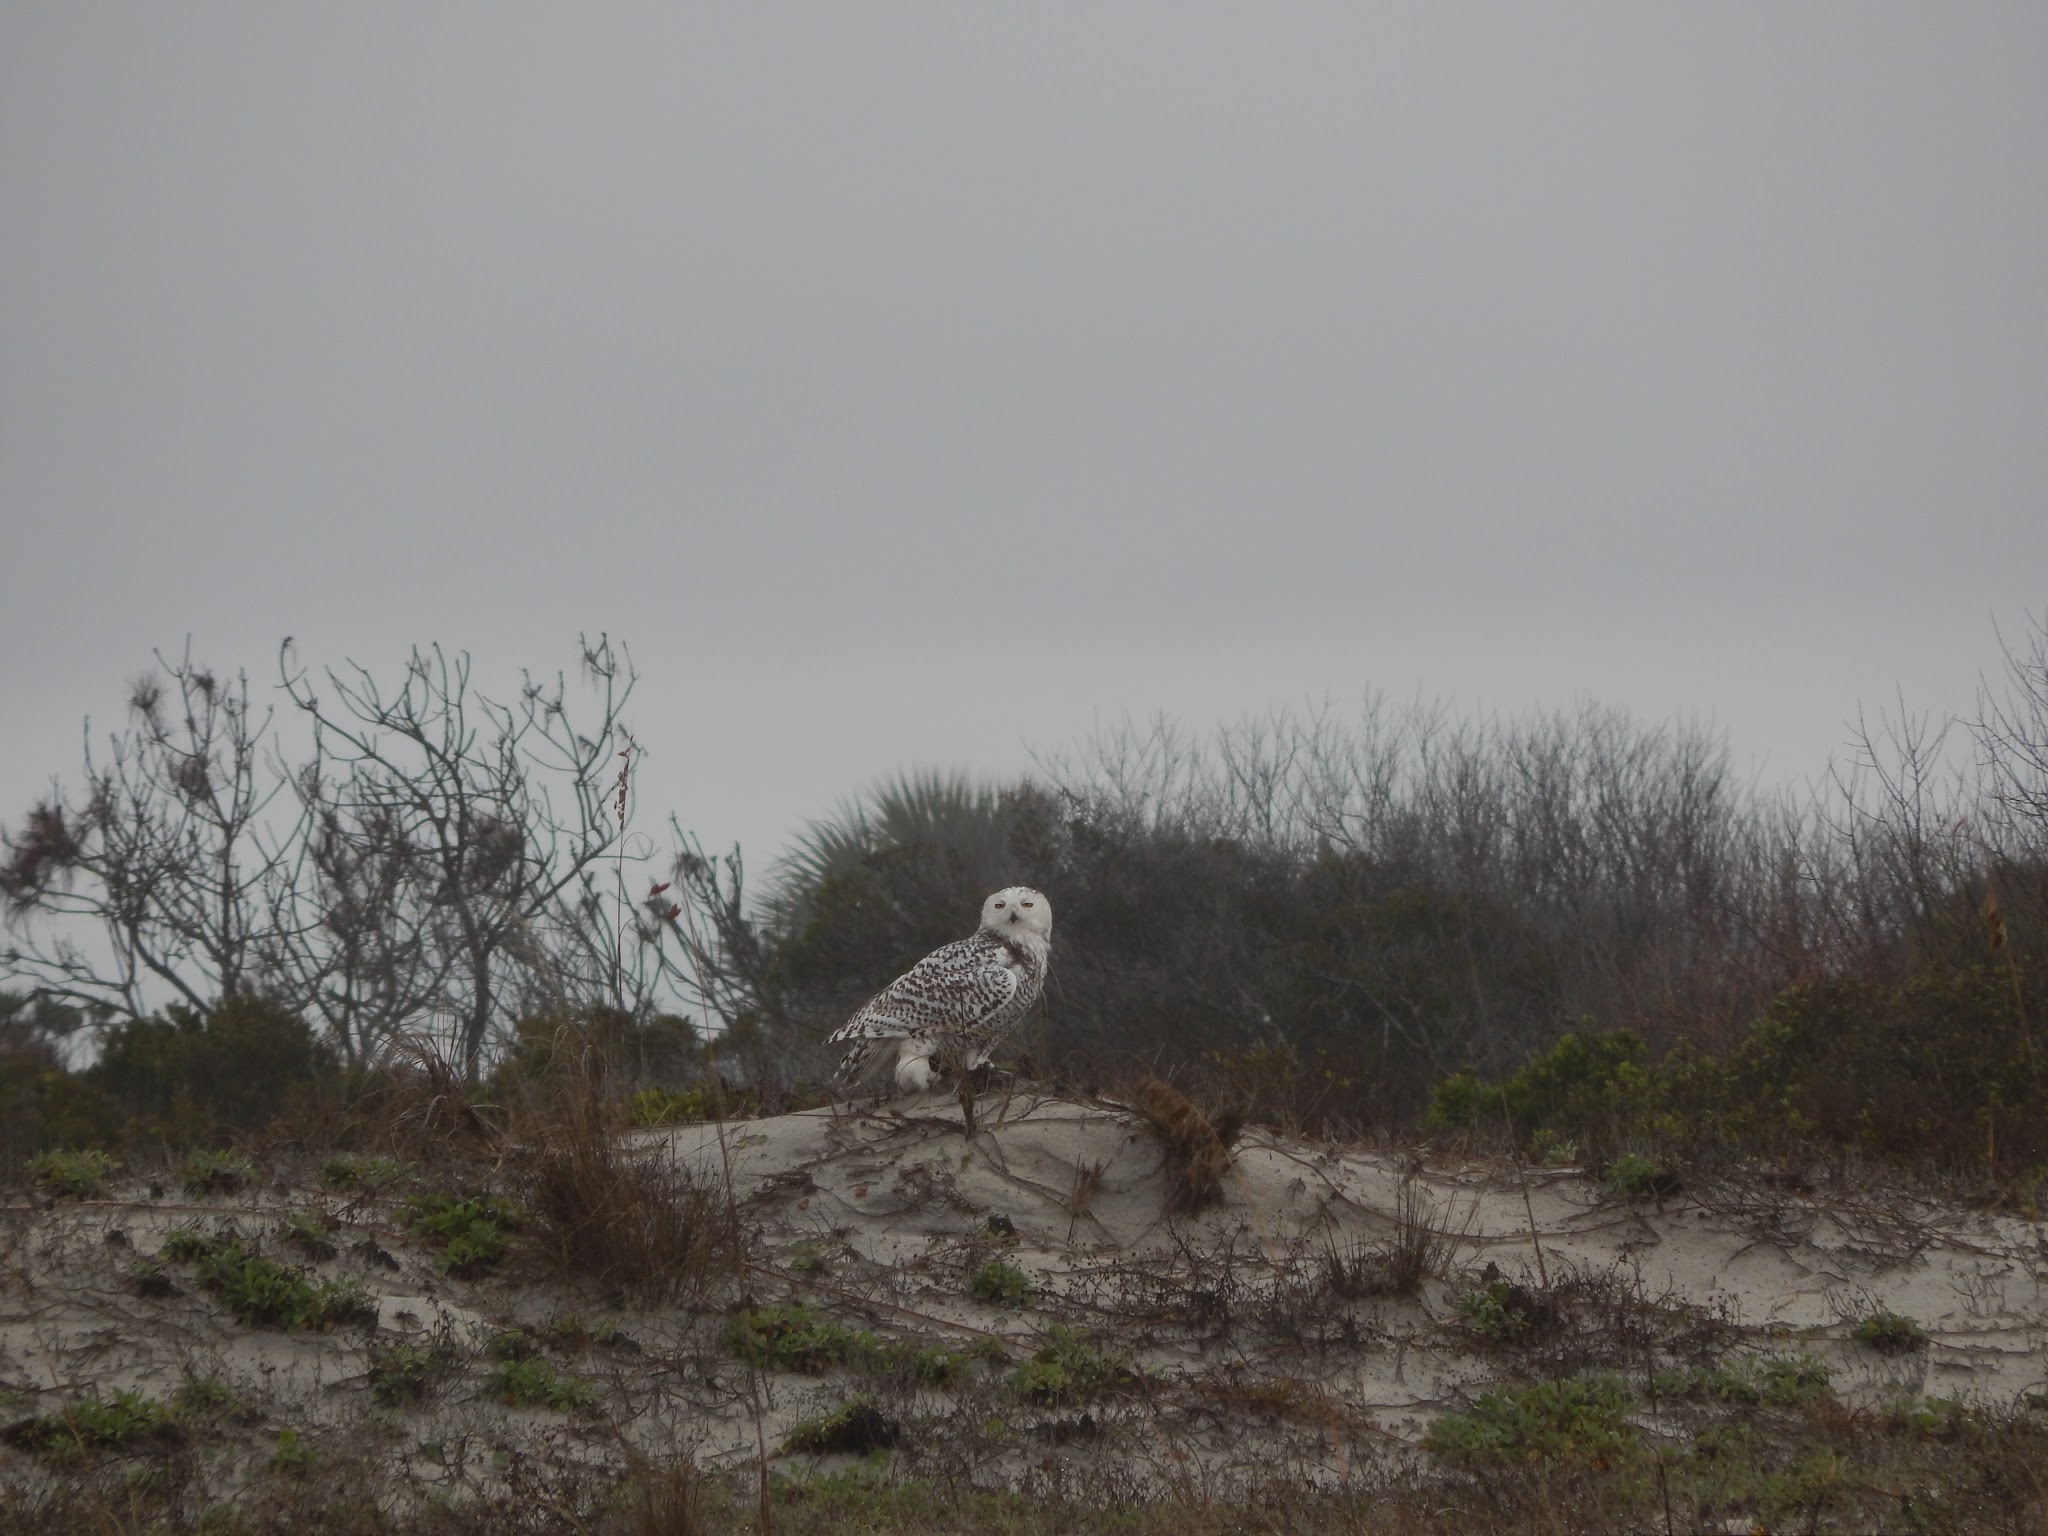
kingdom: Animalia
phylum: Chordata
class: Aves
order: Strigiformes
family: Strigidae
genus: Bubo
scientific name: Bubo scandiacus
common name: Snowy owl
